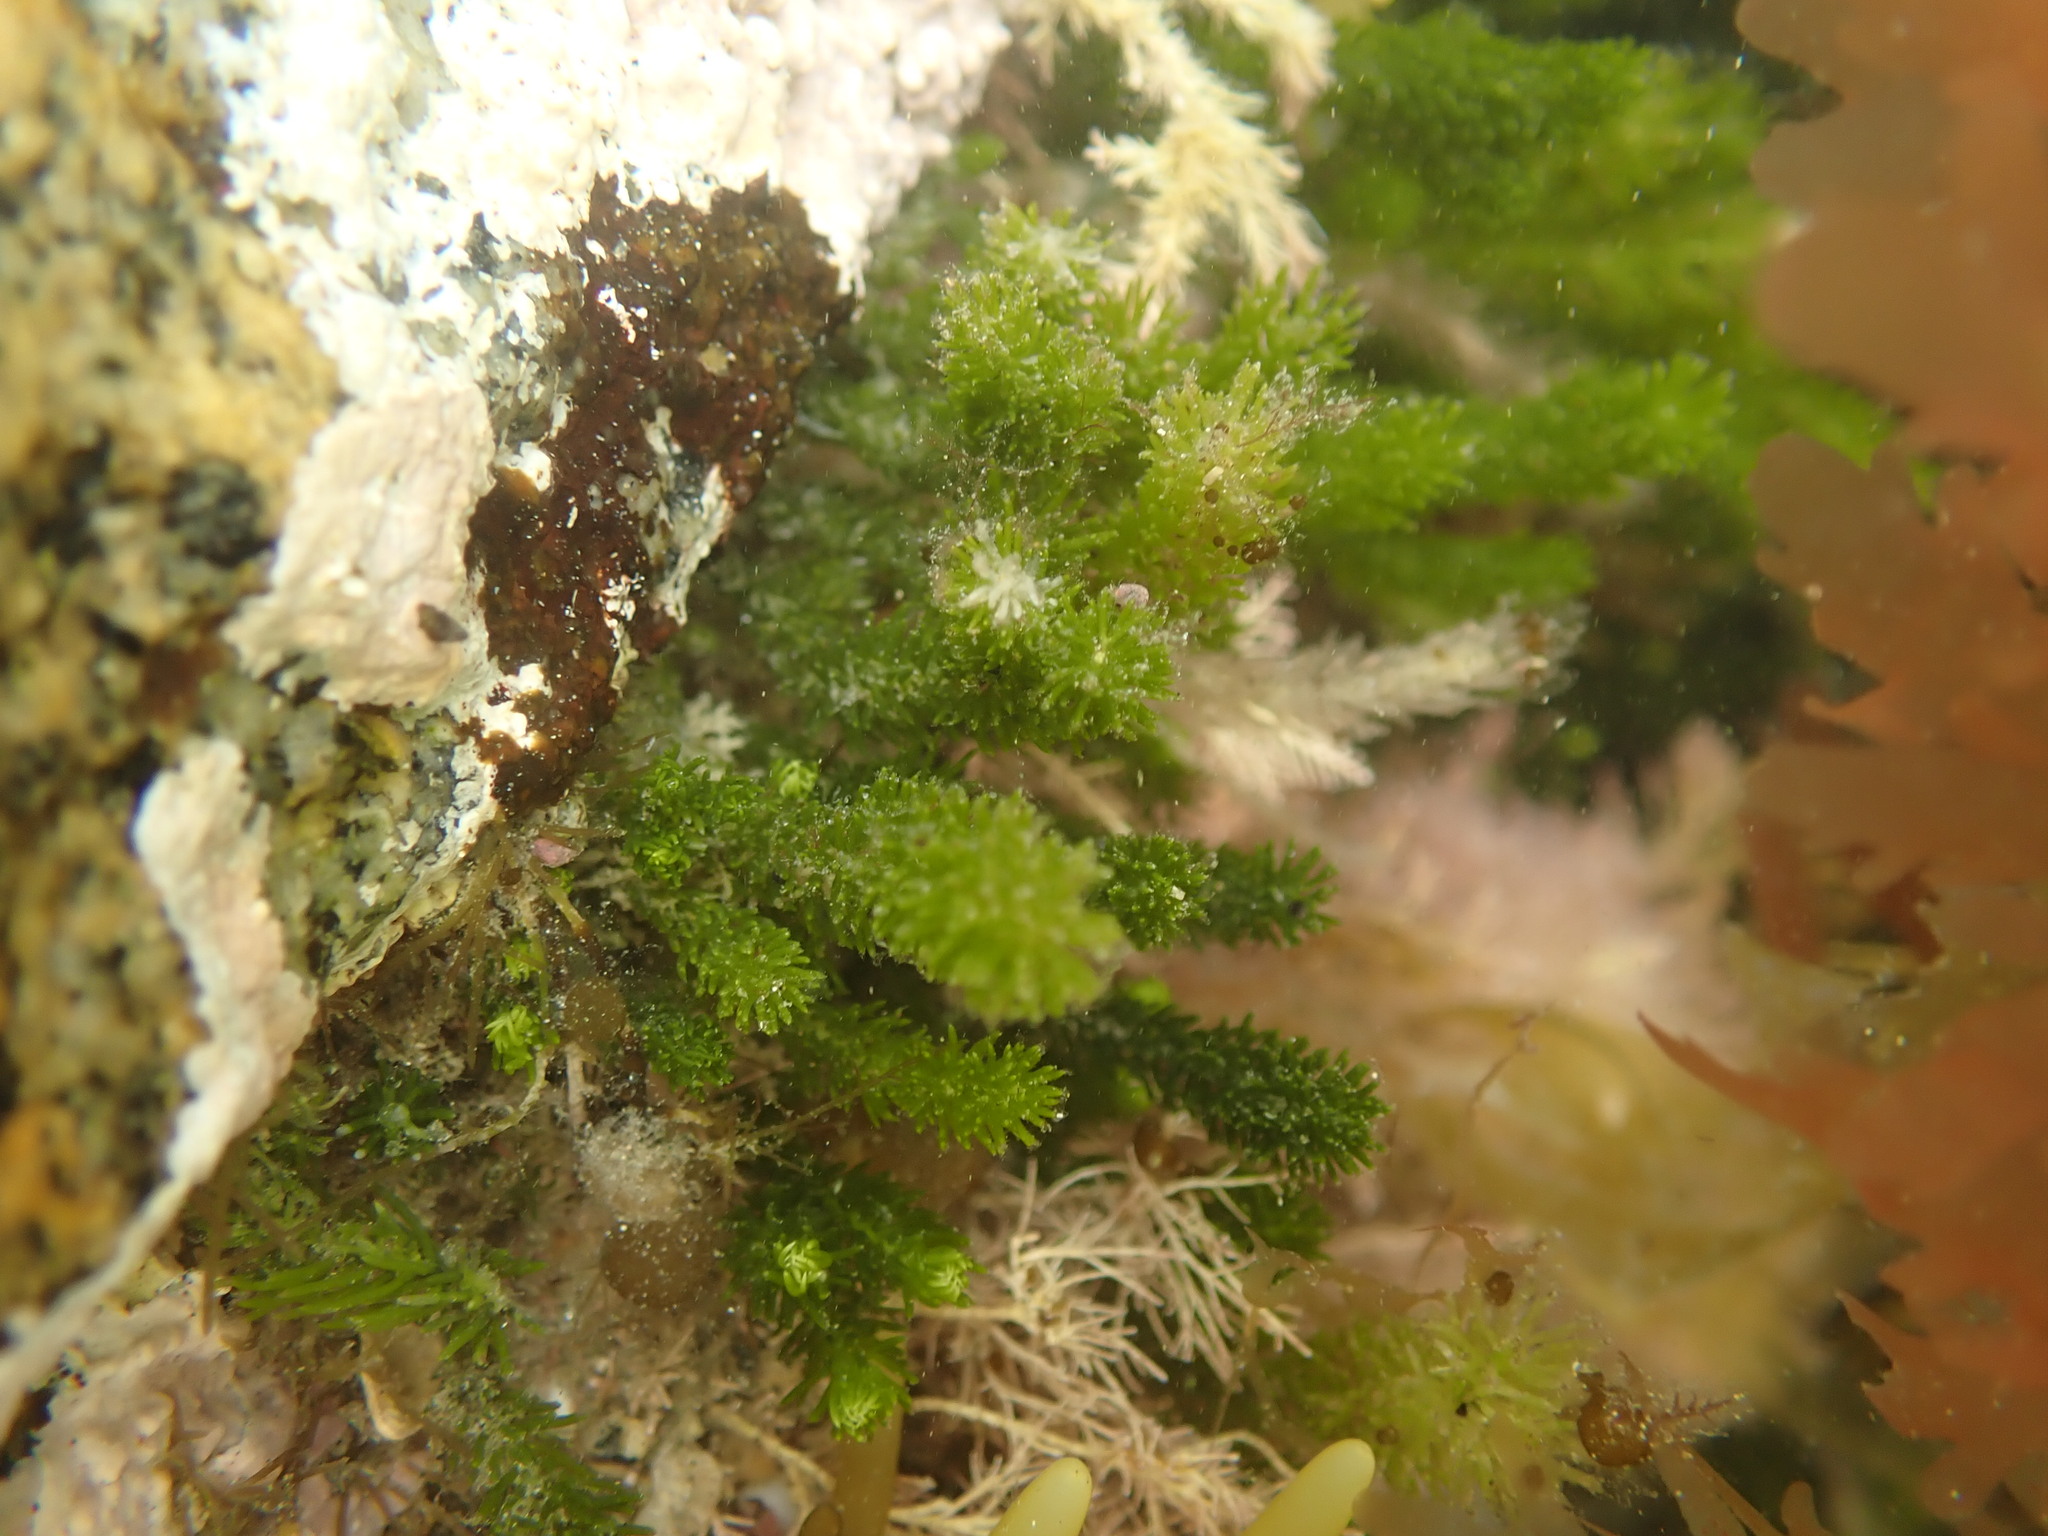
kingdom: Plantae
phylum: Chlorophyta
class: Ulvophyceae
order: Bryopsidales
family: Caulerpaceae
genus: Caulerpa
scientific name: Caulerpa brownii
